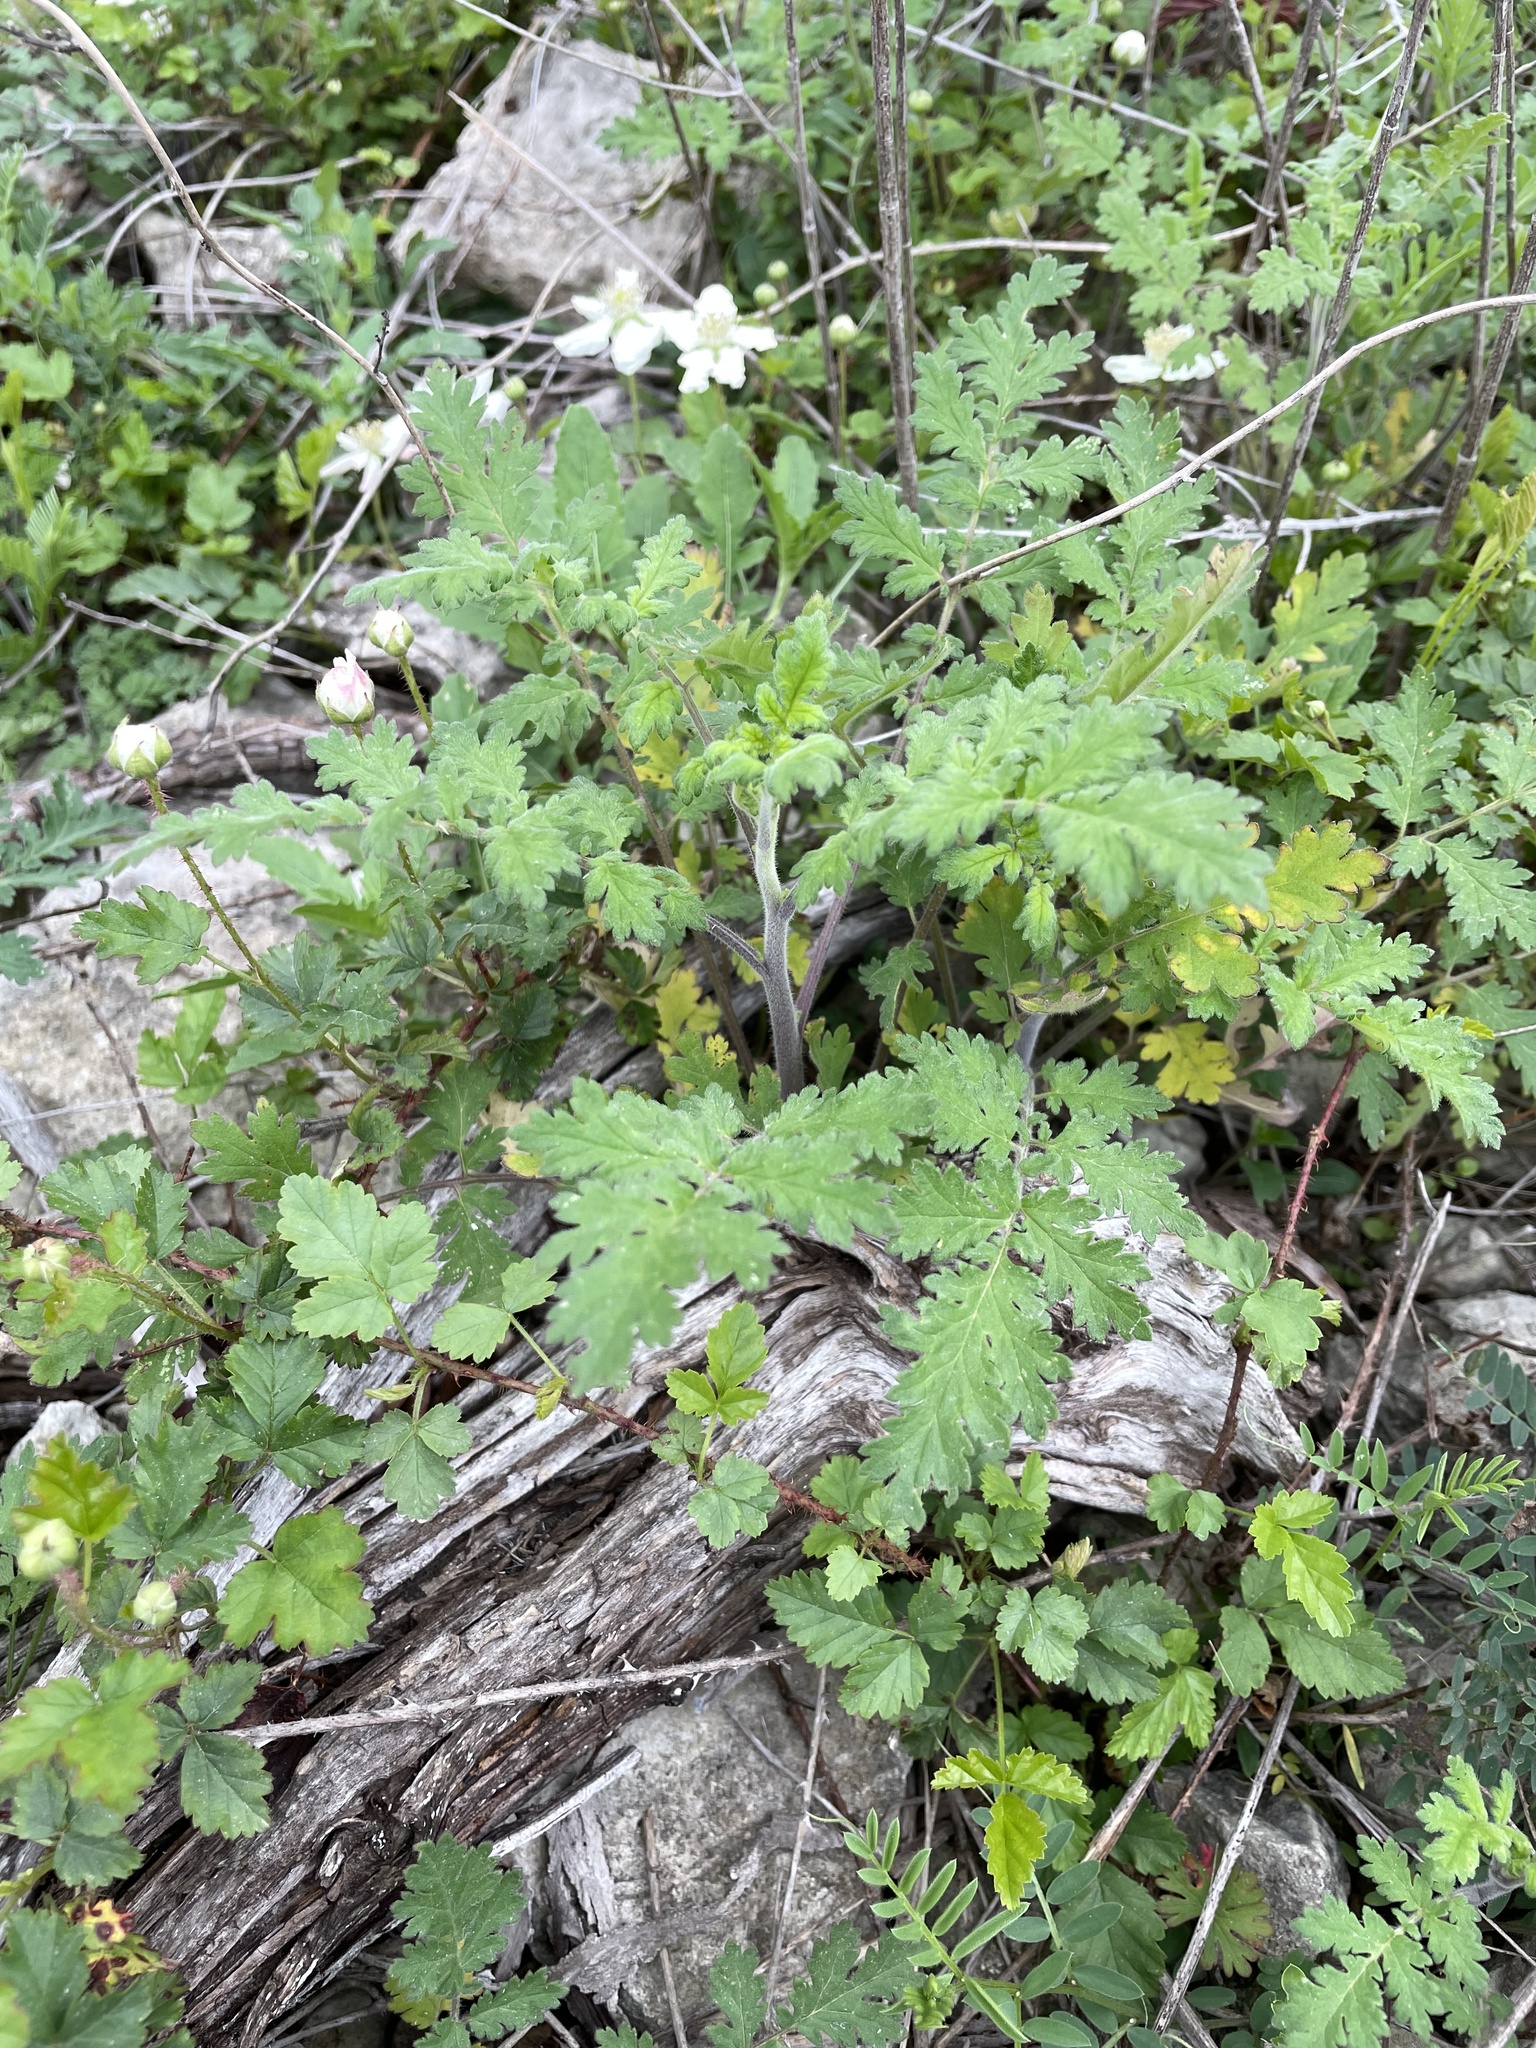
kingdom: Plantae
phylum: Tracheophyta
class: Magnoliopsida
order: Boraginales
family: Hydrophyllaceae
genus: Phacelia
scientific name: Phacelia congesta
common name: Blue curls
